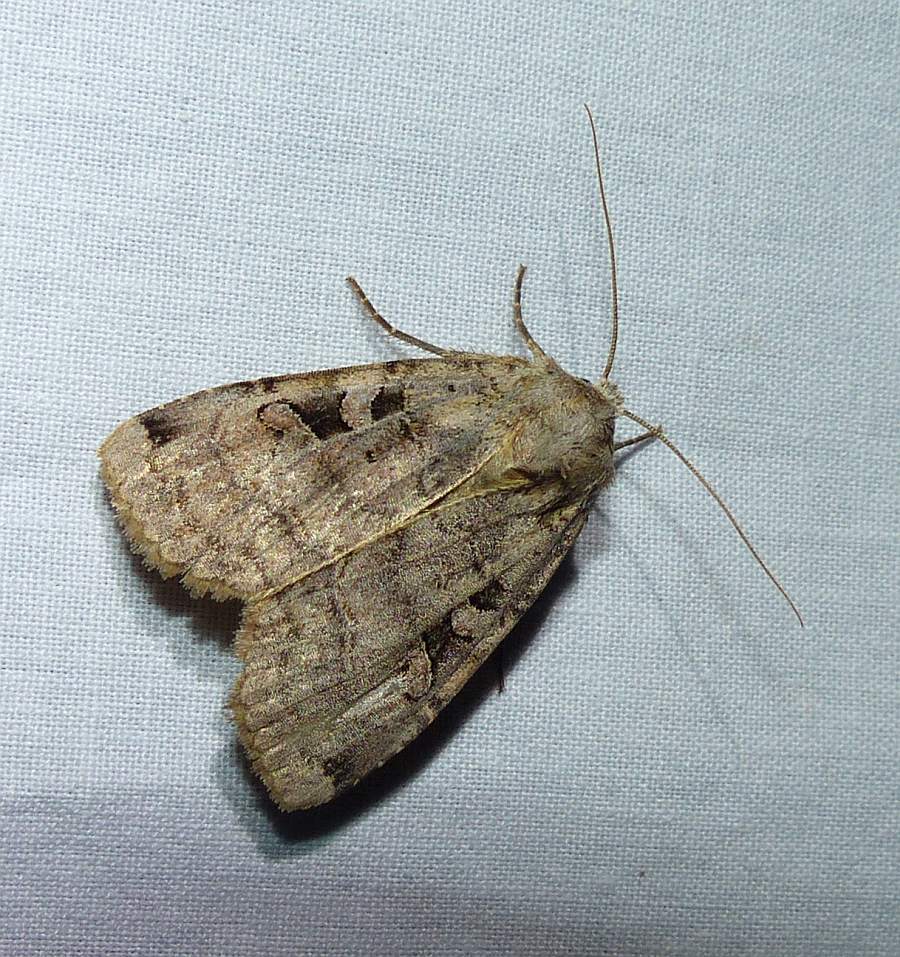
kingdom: Animalia
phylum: Arthropoda
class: Insecta
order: Lepidoptera
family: Noctuidae
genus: Xestia
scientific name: Xestia normaniana
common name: Norman's dart moth
